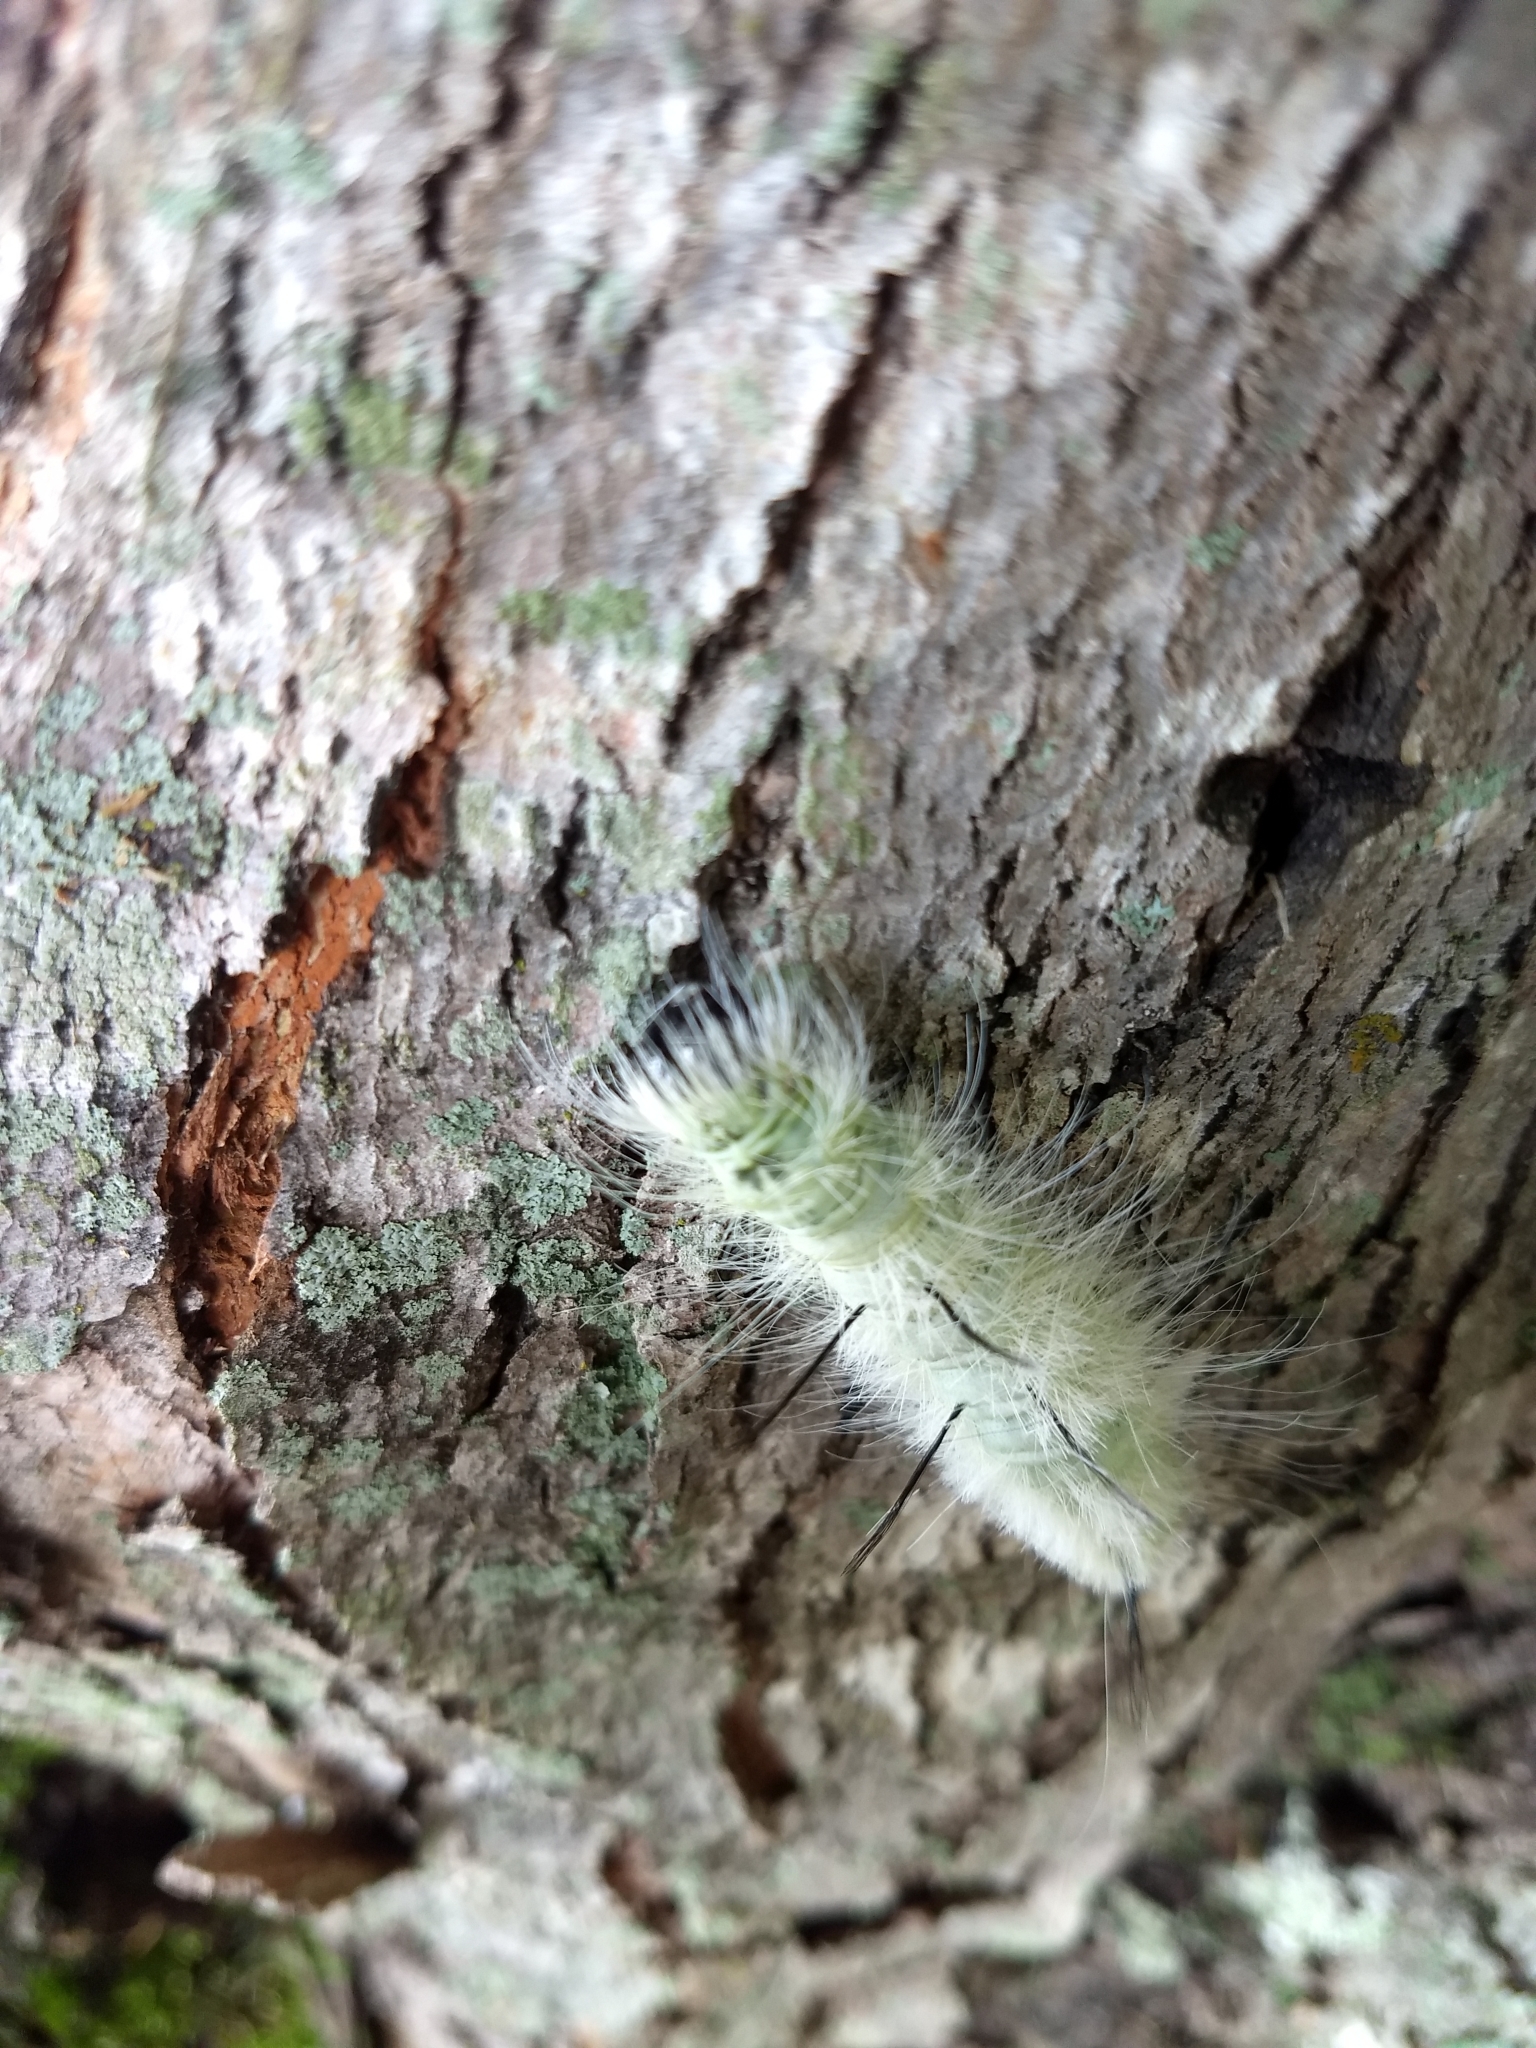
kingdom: Animalia
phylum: Arthropoda
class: Insecta
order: Lepidoptera
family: Noctuidae
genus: Acronicta
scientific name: Acronicta americana
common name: American dagger
